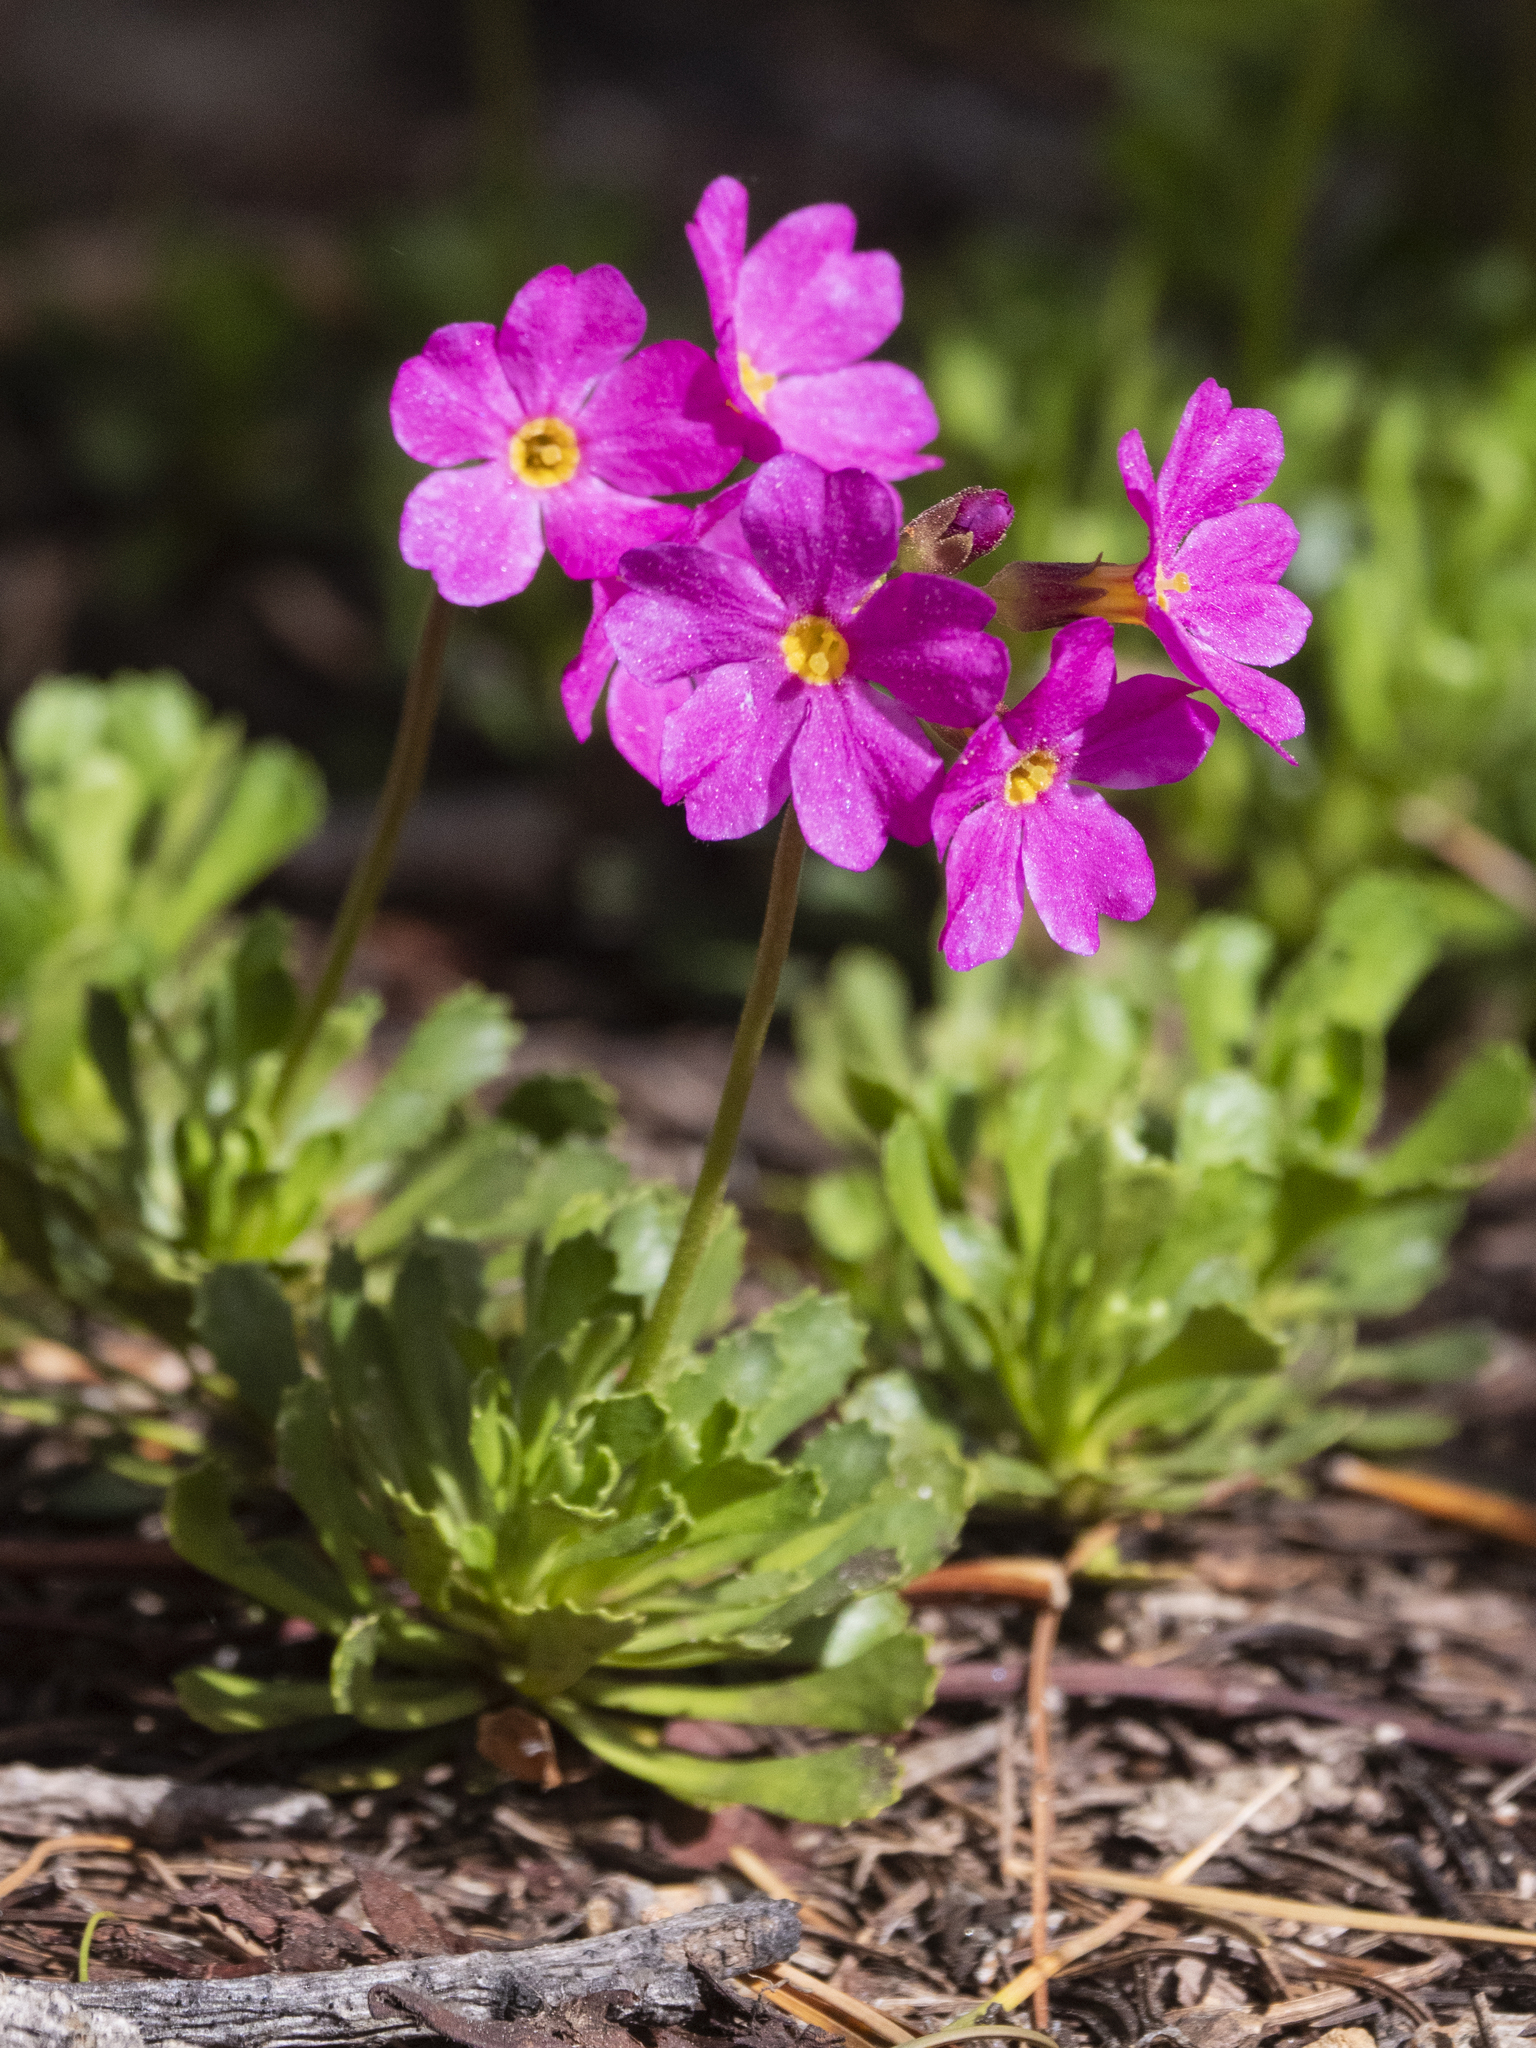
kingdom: Plantae
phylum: Tracheophyta
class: Magnoliopsida
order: Ericales
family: Primulaceae
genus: Primula
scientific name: Primula suffrutescens
